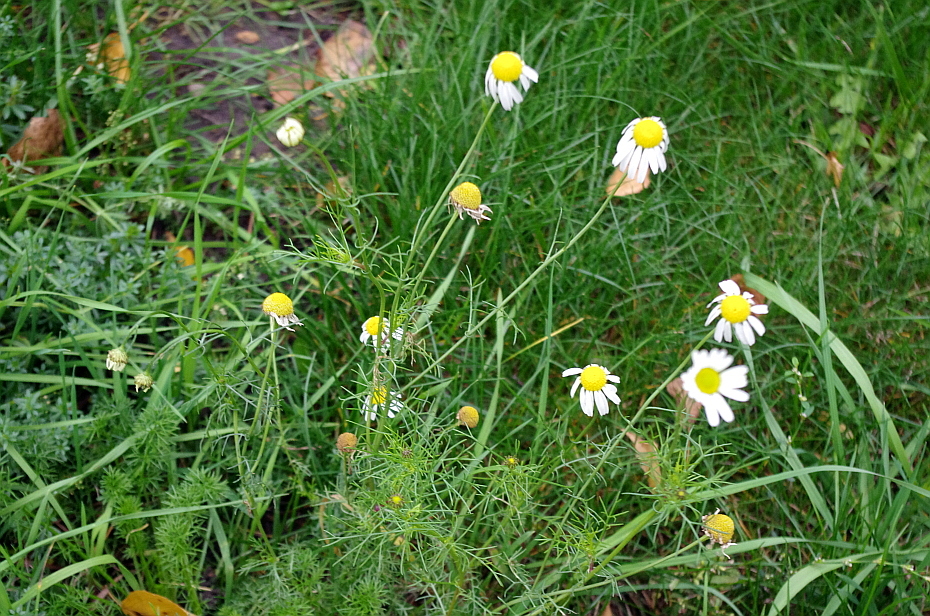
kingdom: Plantae
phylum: Tracheophyta
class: Magnoliopsida
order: Asterales
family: Asteraceae
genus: Tripleurospermum
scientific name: Tripleurospermum inodorum
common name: Scentless mayweed
